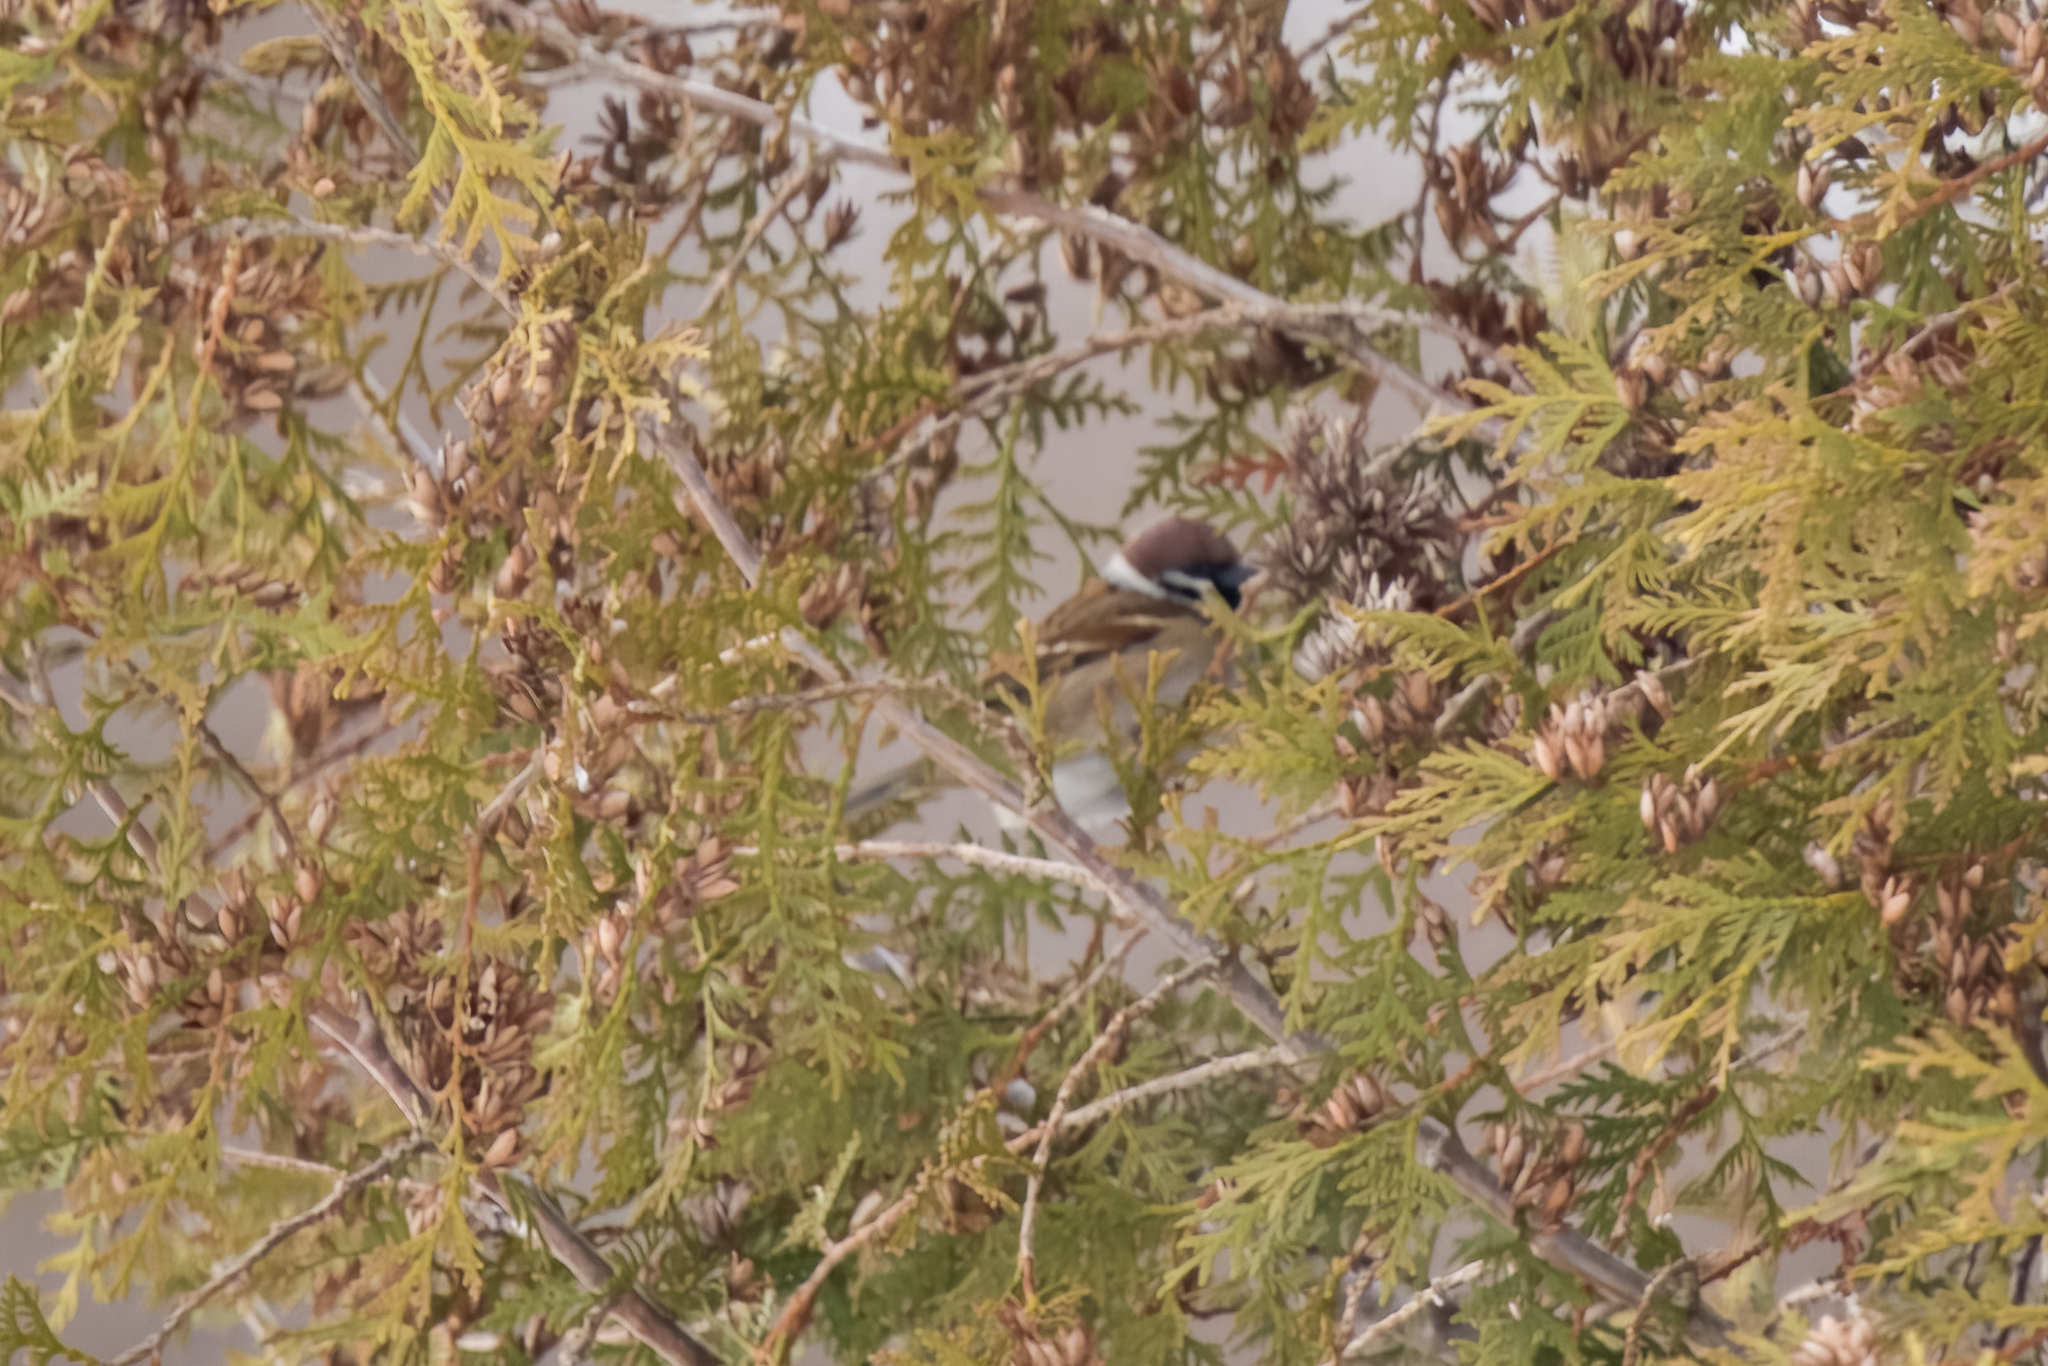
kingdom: Animalia
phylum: Chordata
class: Aves
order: Passeriformes
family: Passeridae
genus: Passer
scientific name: Passer montanus
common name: Eurasian tree sparrow
